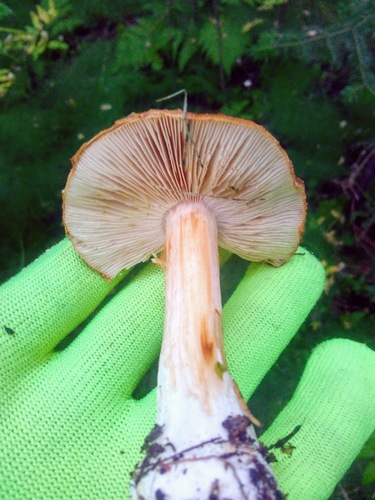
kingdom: Fungi
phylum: Basidiomycota
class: Agaricomycetes
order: Agaricales
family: Cortinariaceae
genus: Thaxterogaster
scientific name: Thaxterogaster multiformis
